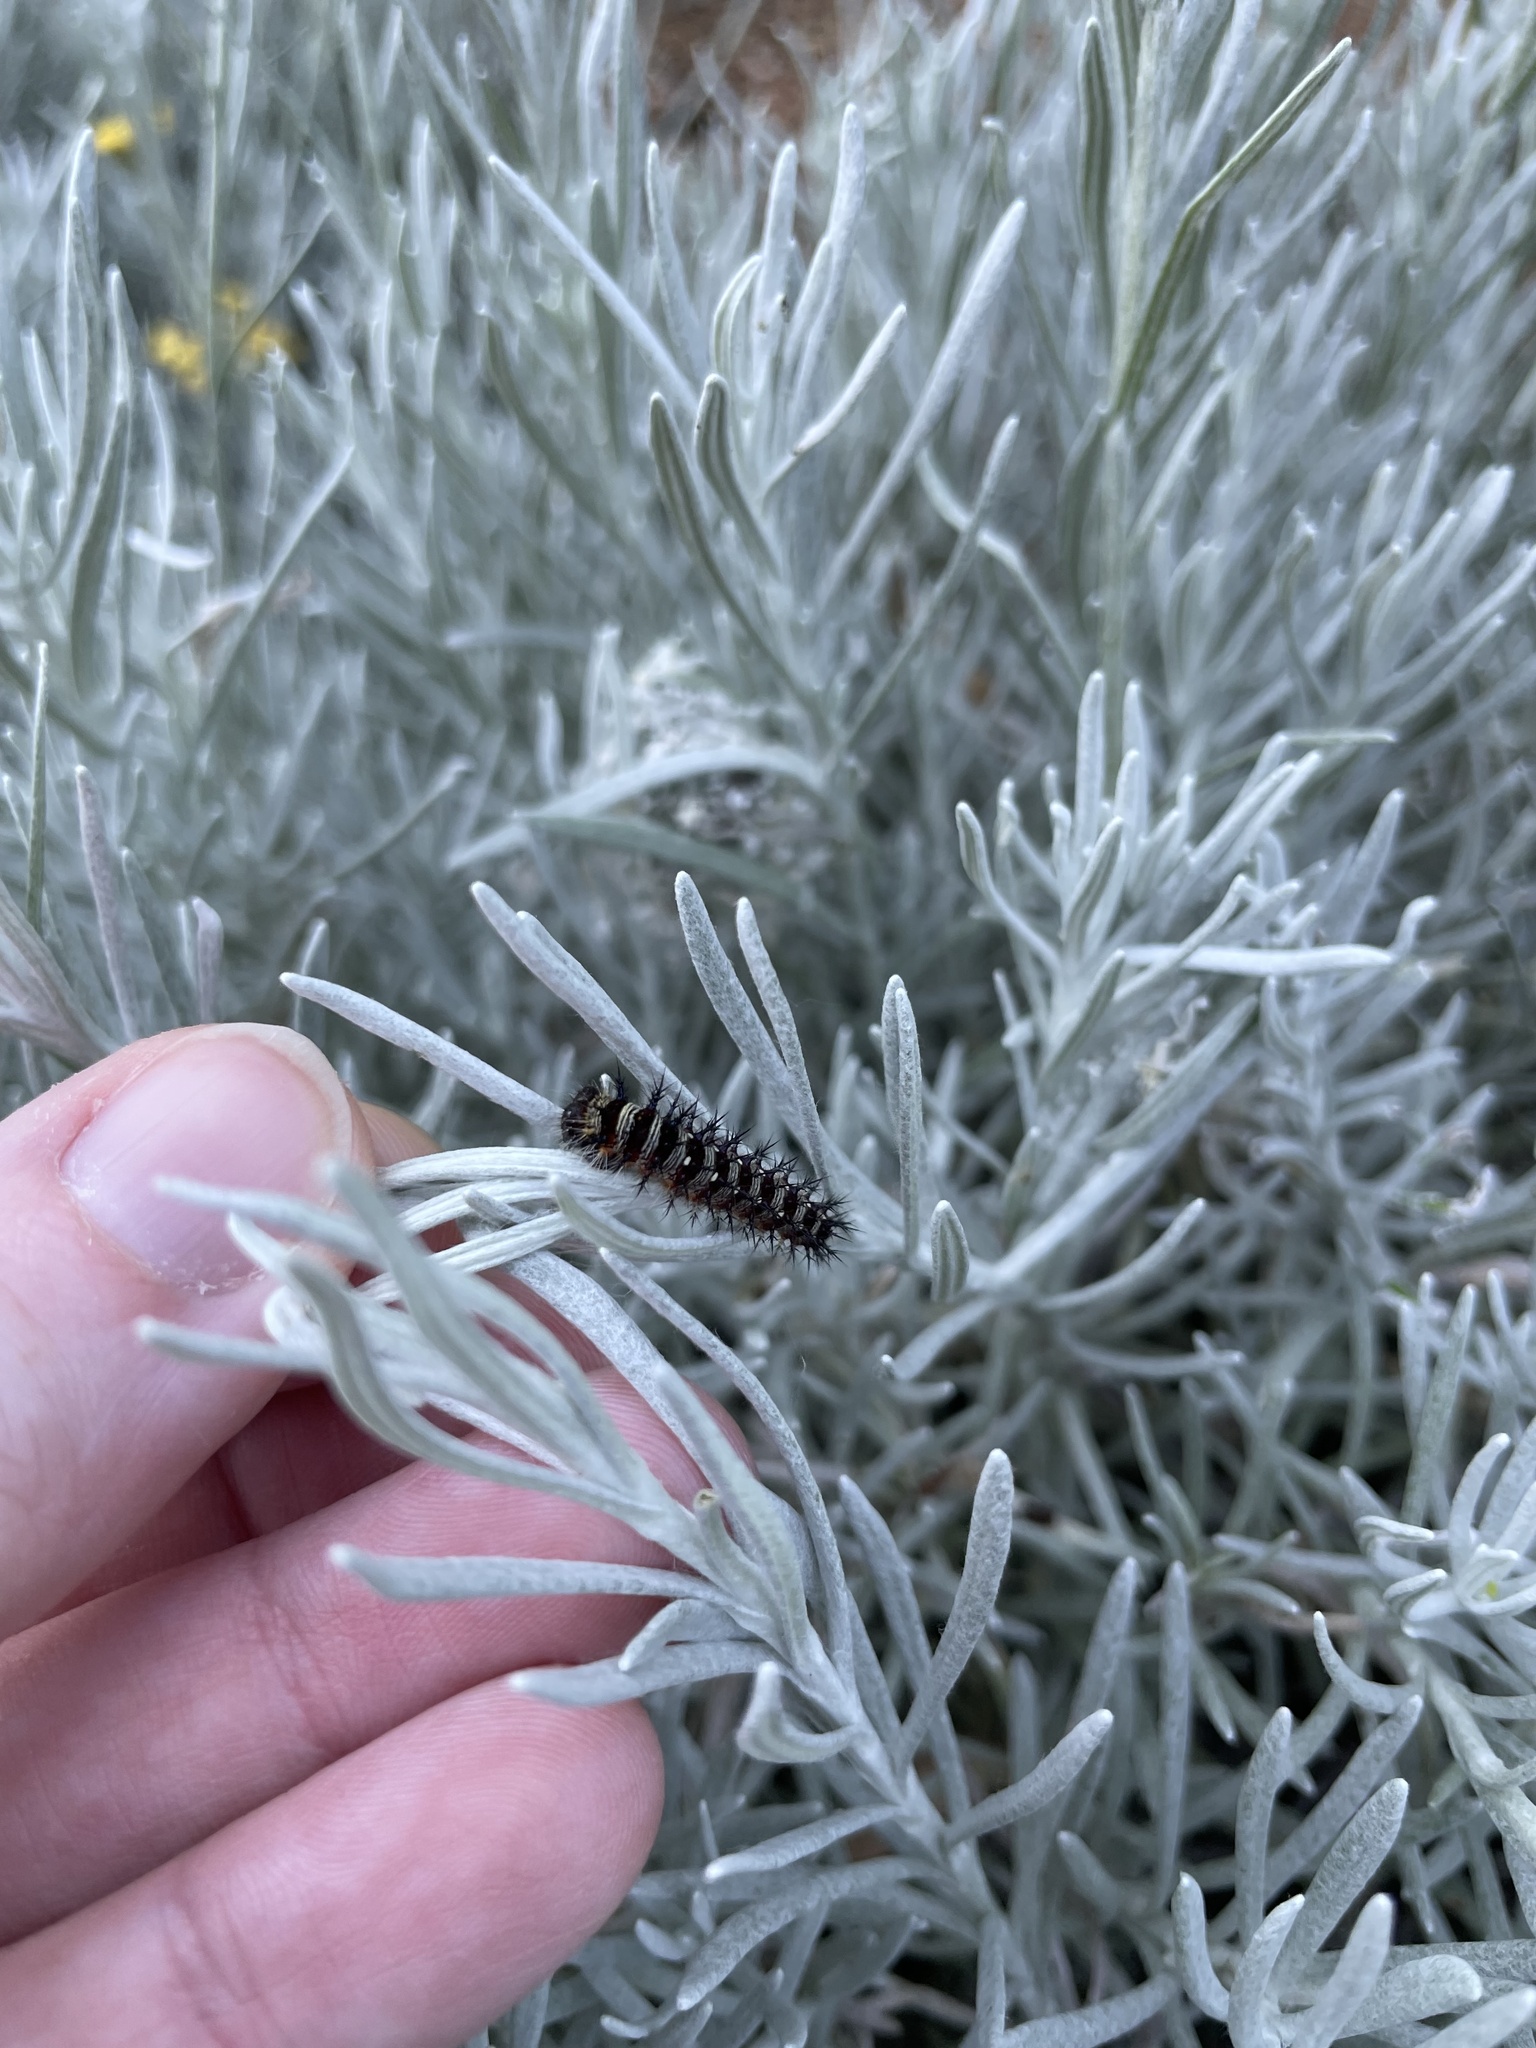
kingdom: Animalia
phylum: Arthropoda
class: Insecta
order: Lepidoptera
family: Nymphalidae
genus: Vanessa
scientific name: Vanessa virginiensis
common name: American lady
